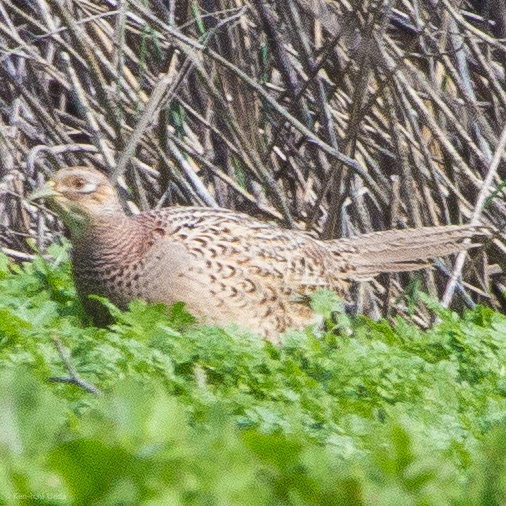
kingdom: Animalia
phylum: Chordata
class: Aves
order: Galliformes
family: Phasianidae
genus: Phasianus
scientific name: Phasianus colchicus
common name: Common pheasant
